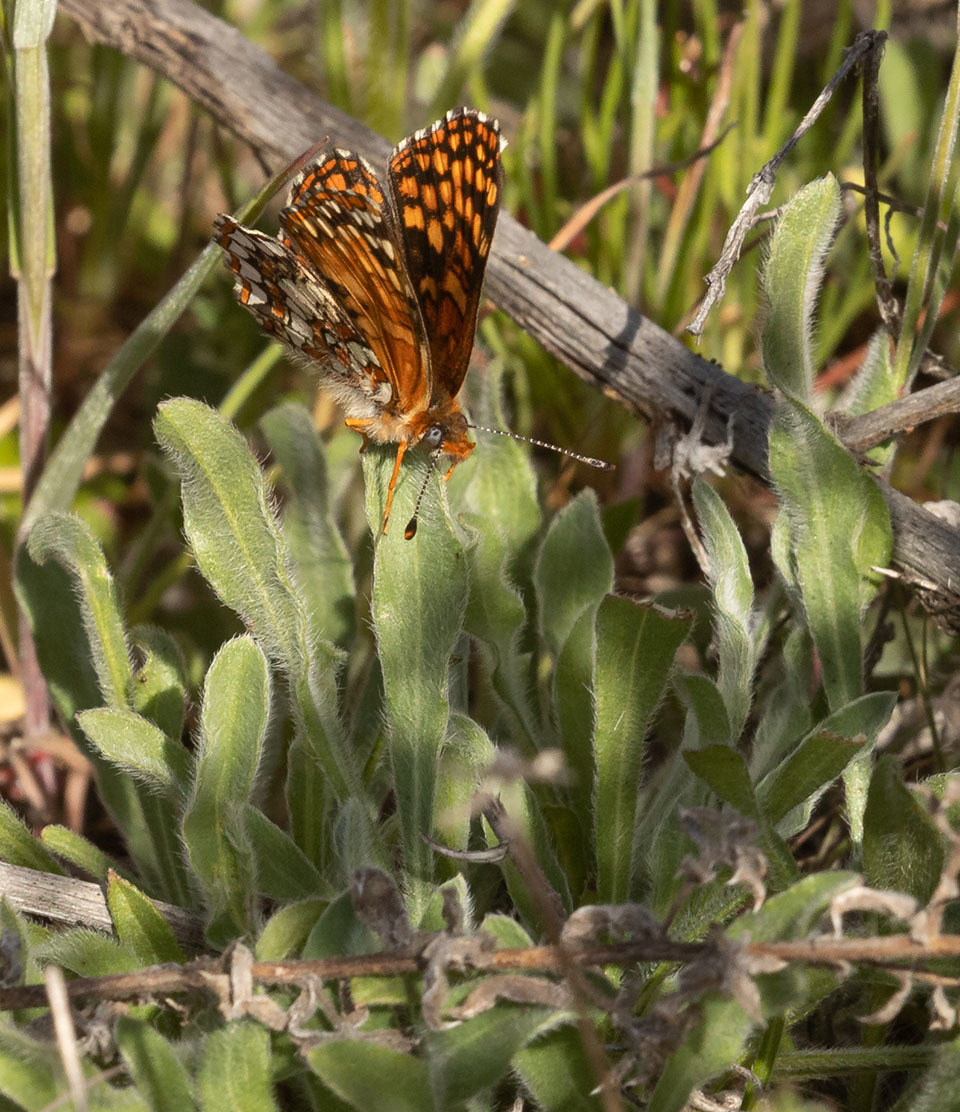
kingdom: Animalia
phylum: Arthropoda
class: Insecta
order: Lepidoptera
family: Nymphalidae
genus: Chlosyne
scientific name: Chlosyne gabbii
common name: Gabb's checkerspot
